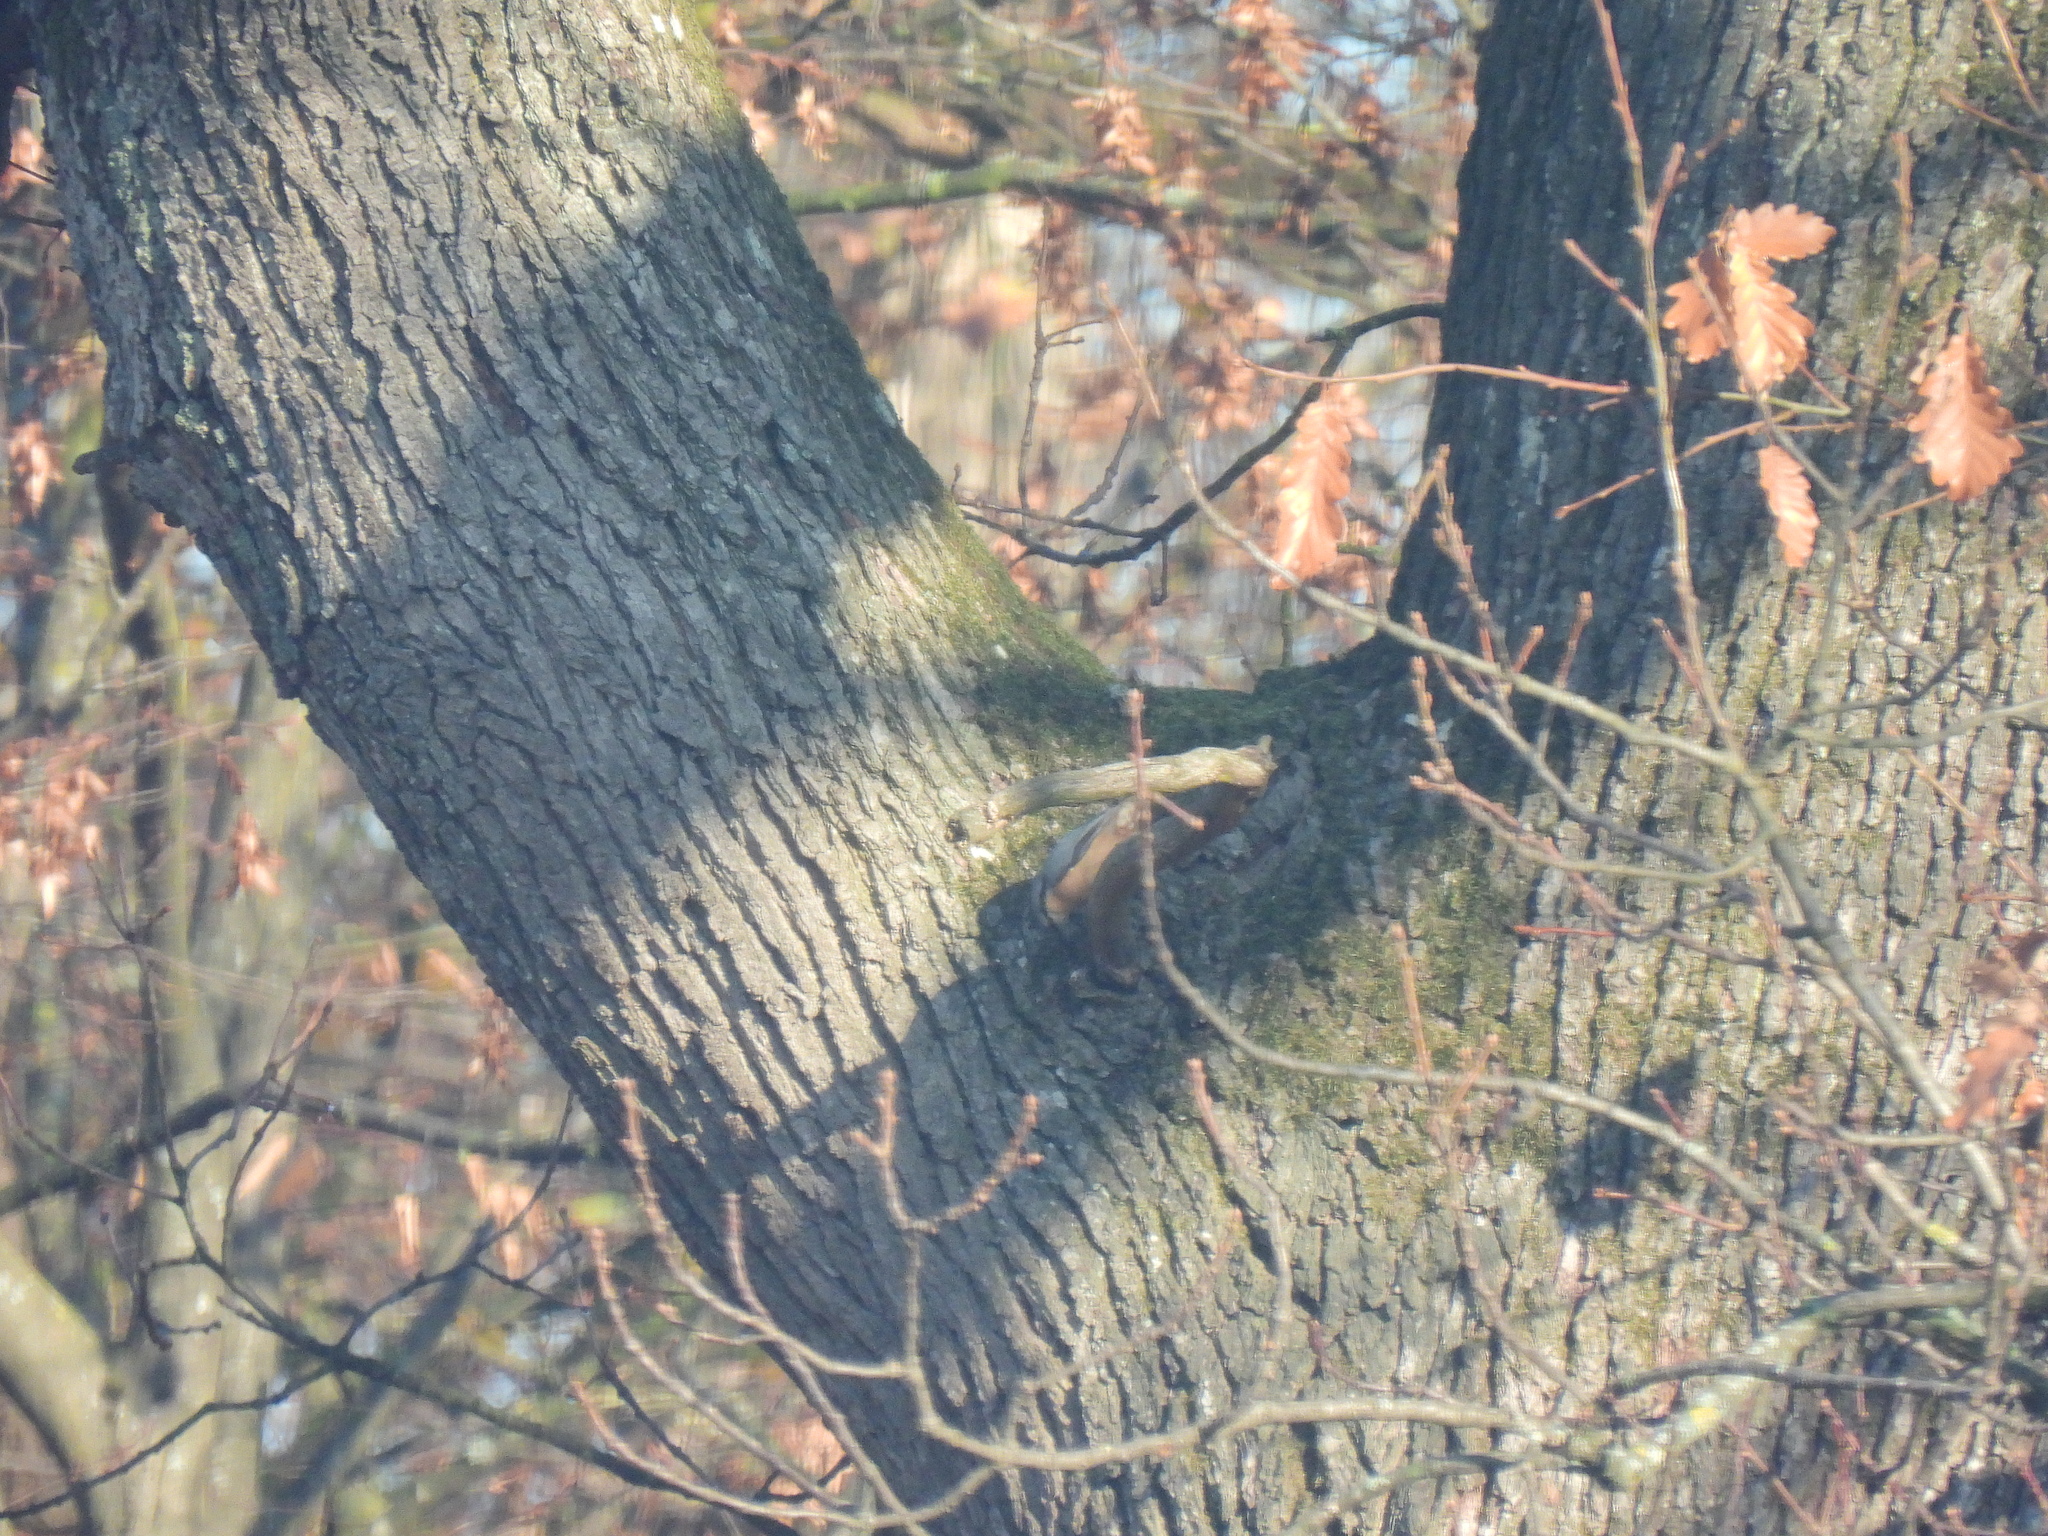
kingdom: Animalia
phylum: Chordata
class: Aves
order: Passeriformes
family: Sittidae
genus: Sitta
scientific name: Sitta europaea
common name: Eurasian nuthatch
